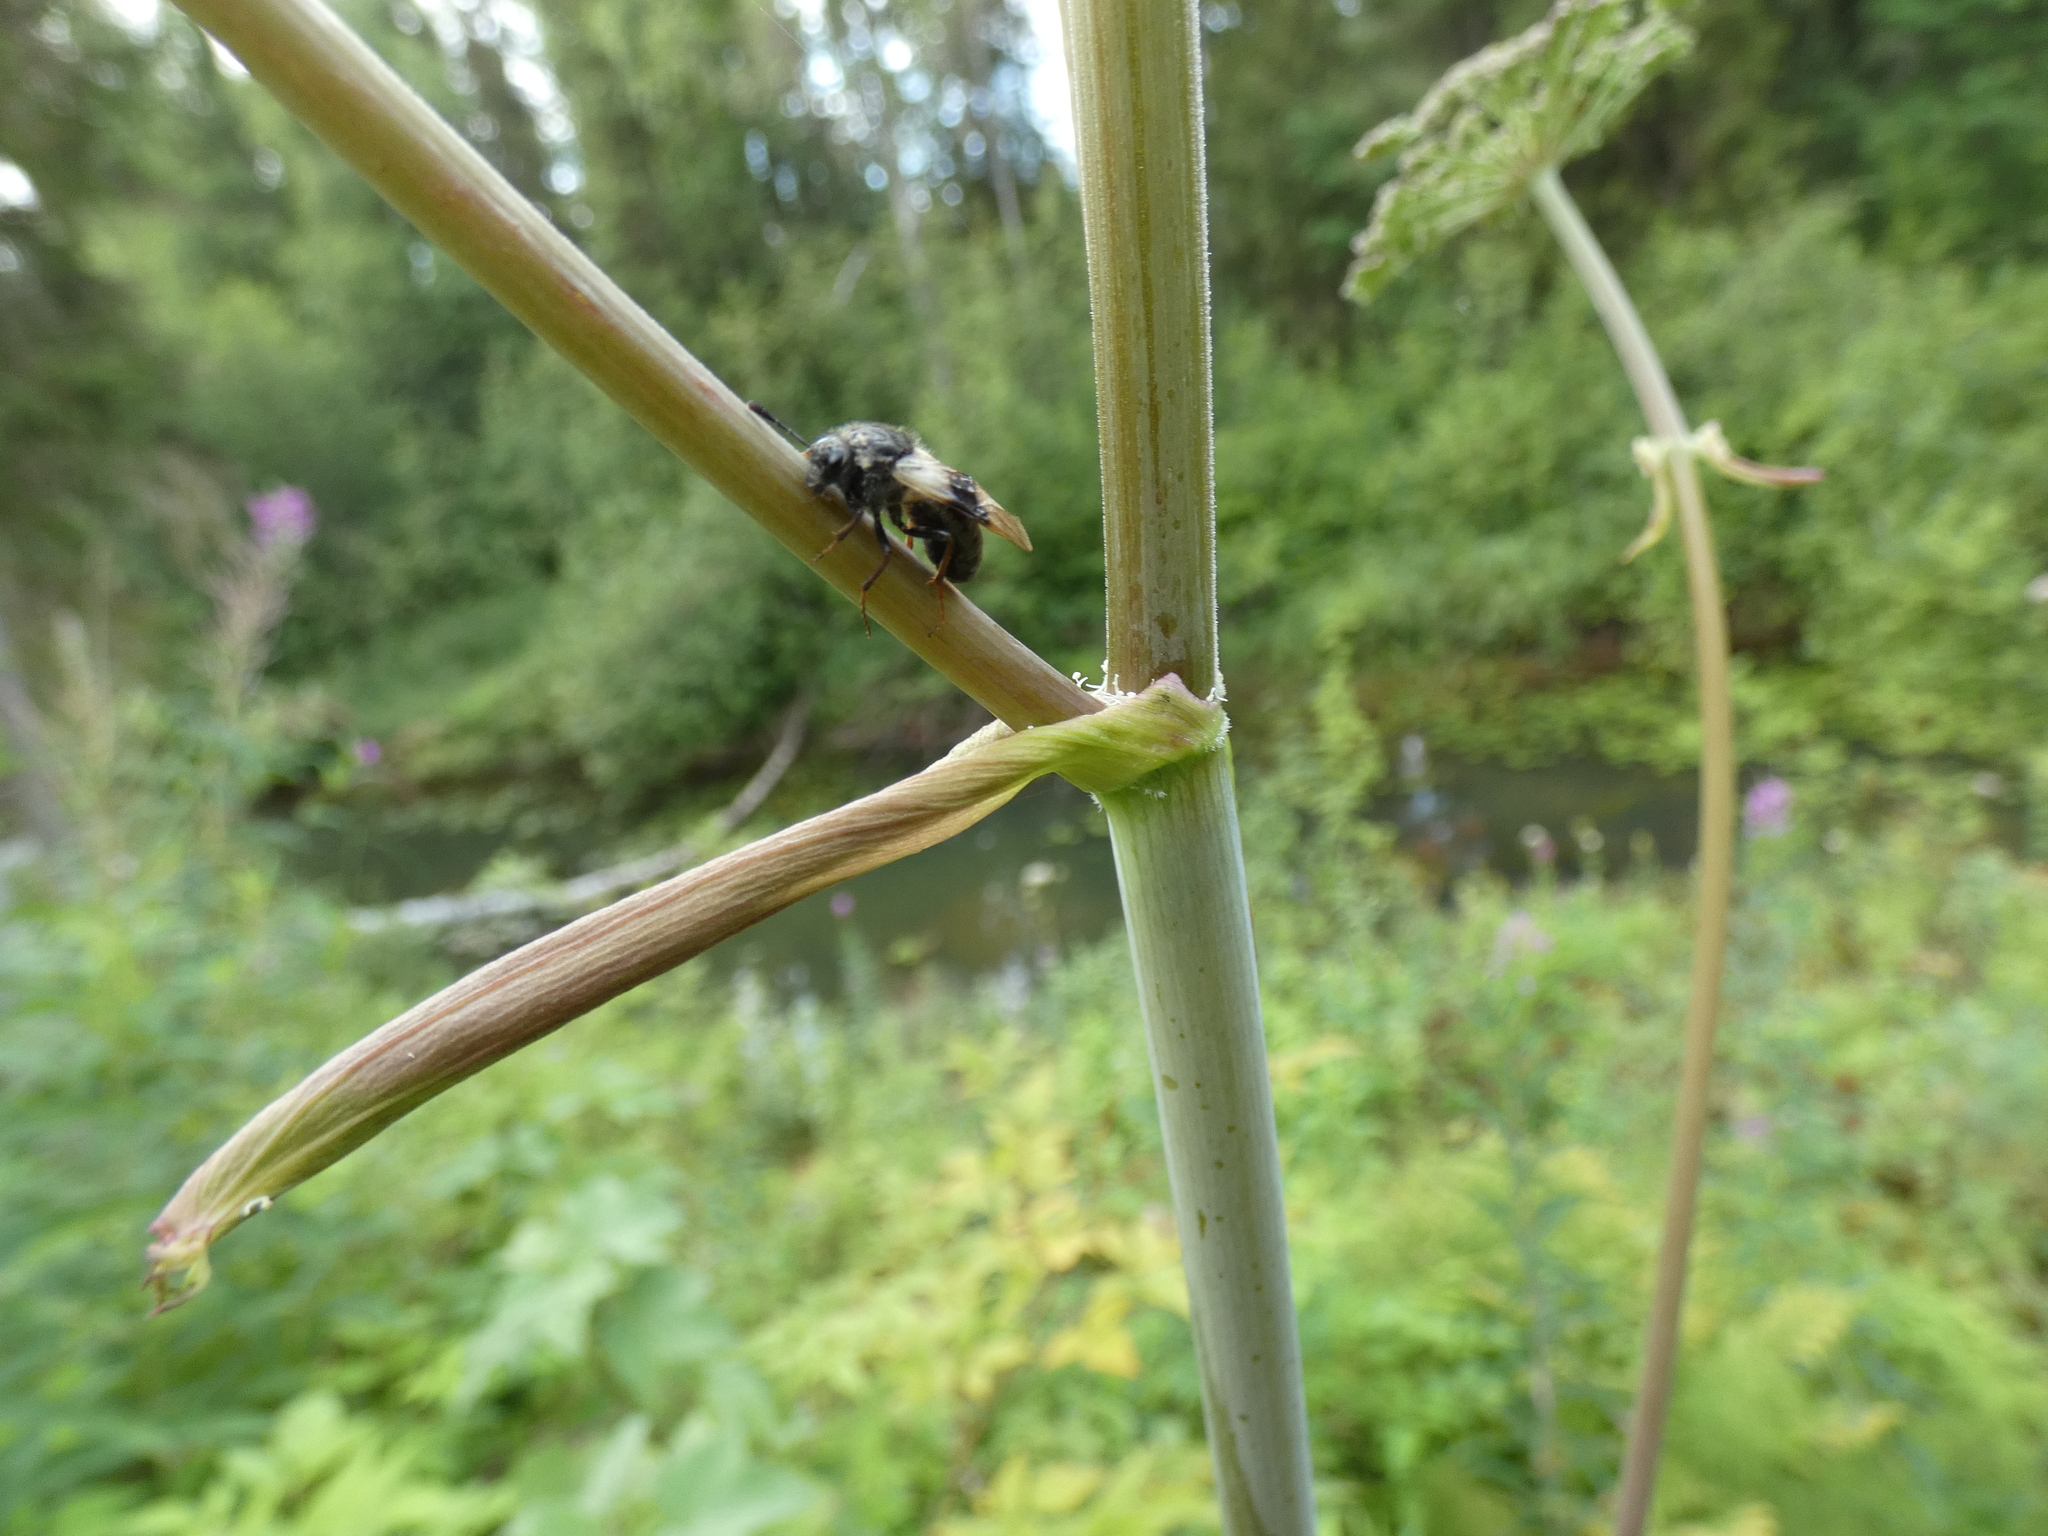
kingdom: Animalia
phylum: Arthropoda
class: Insecta
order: Hymenoptera
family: Cimbicidae
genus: Abia
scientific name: Abia fasciata
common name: Banded honeysuckle sawfly
